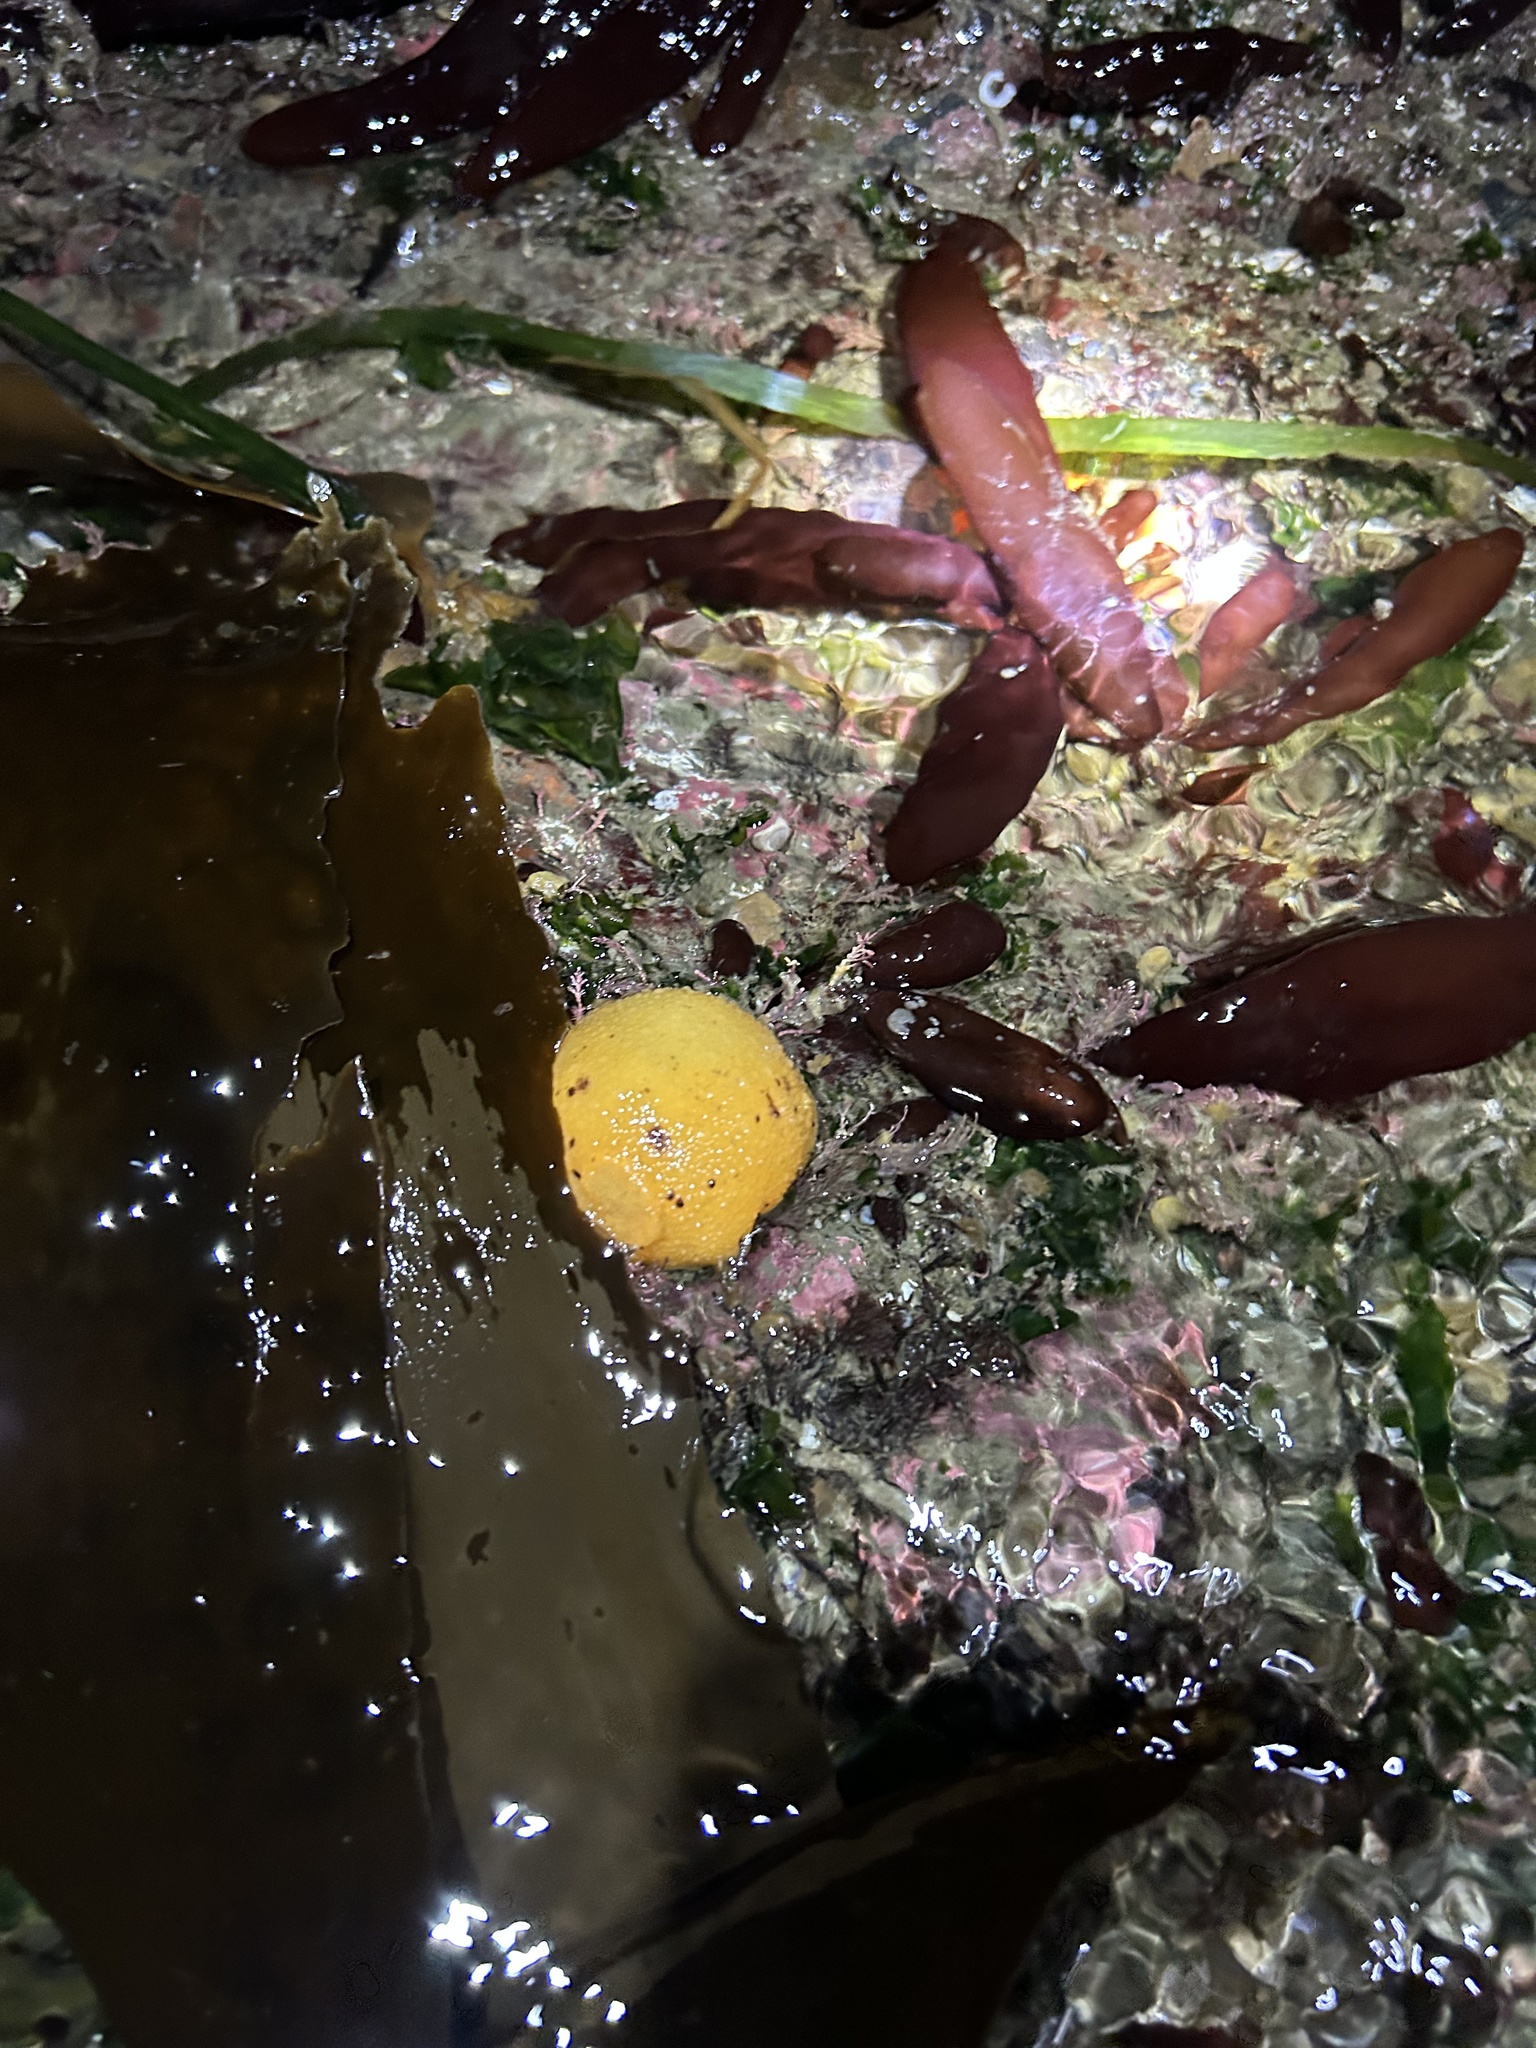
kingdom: Animalia
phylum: Mollusca
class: Gastropoda
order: Nudibranchia
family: Dorididae
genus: Doris
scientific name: Doris montereyensis
